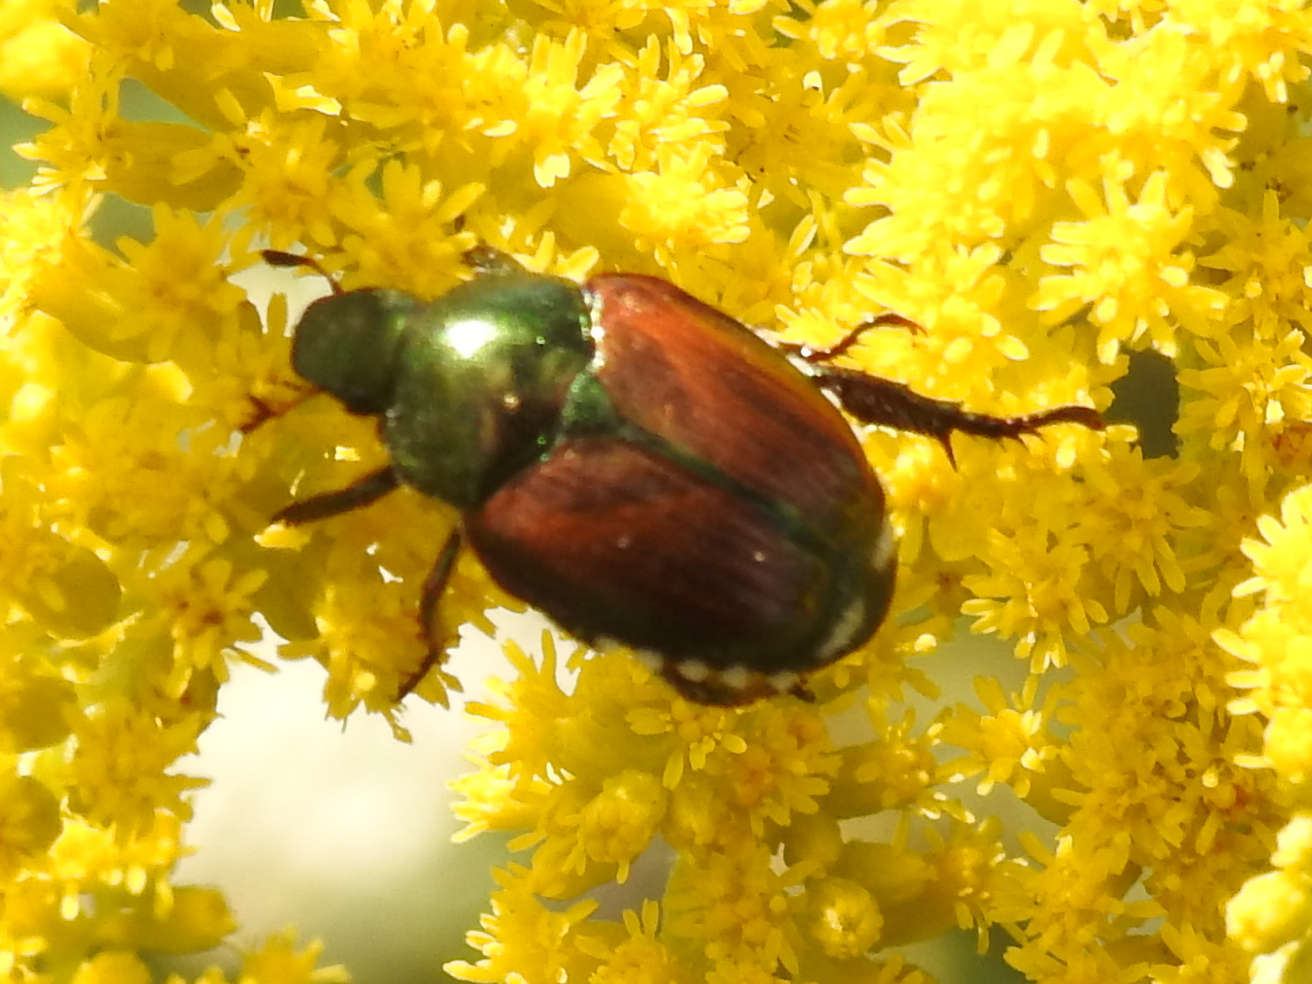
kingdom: Animalia
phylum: Arthropoda
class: Insecta
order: Coleoptera
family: Scarabaeidae
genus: Popillia
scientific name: Popillia japonica
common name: Japanese beetle
